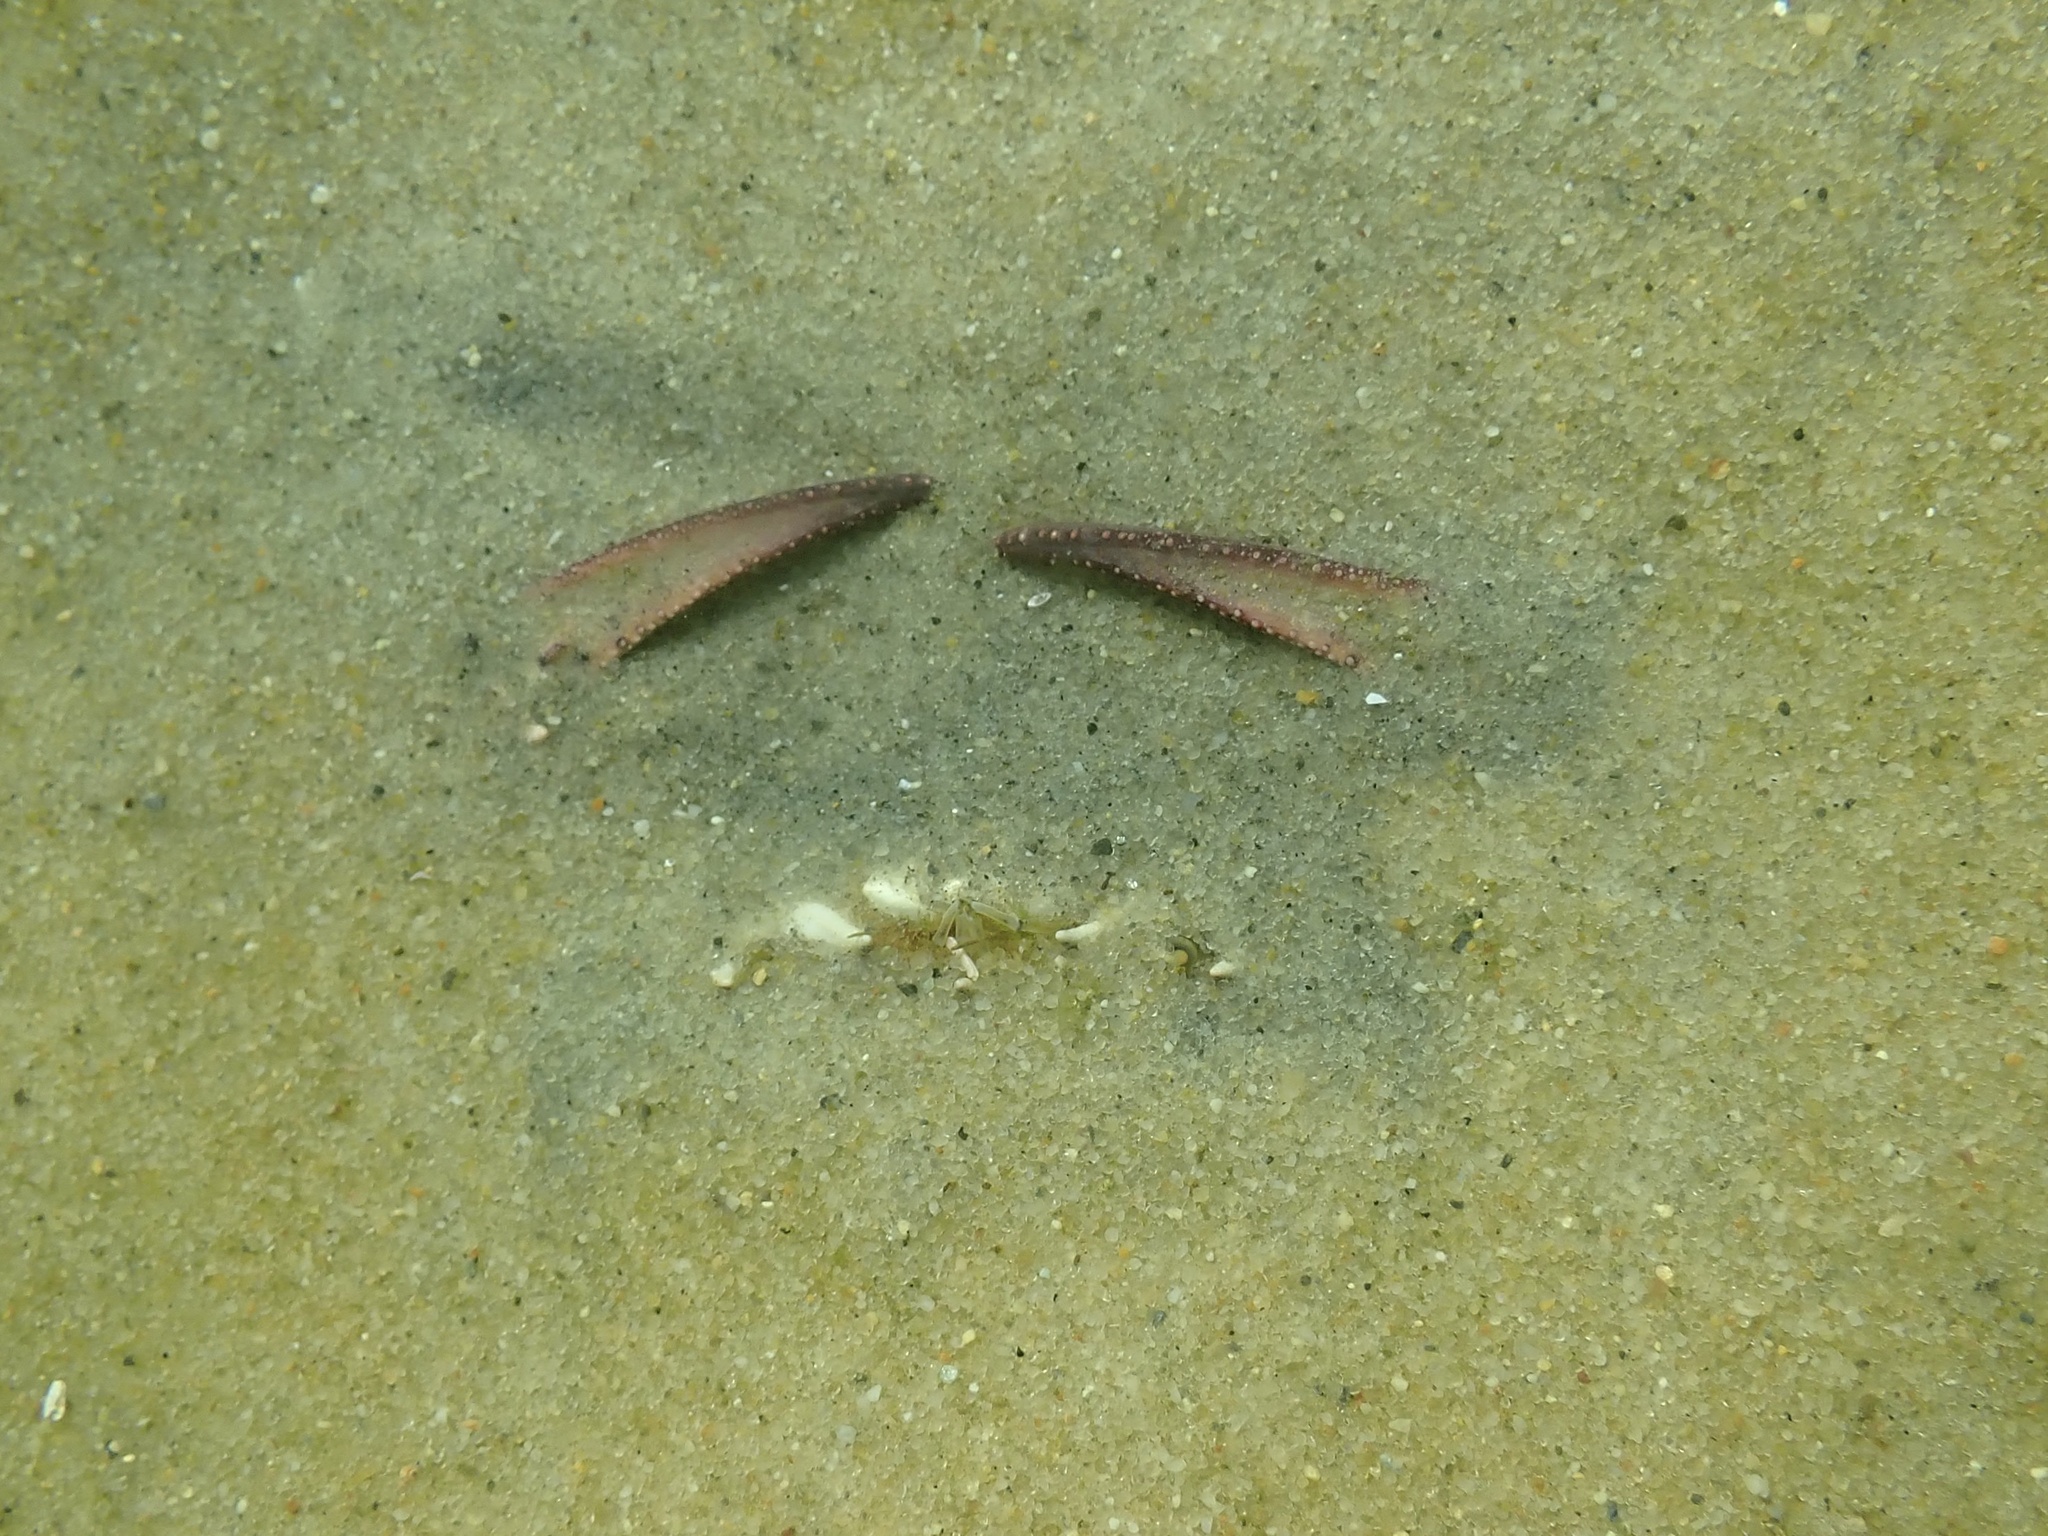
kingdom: Animalia
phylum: Arthropoda
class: Malacostraca
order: Decapoda
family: Ovalipidae
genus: Ovalipes
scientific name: Ovalipes ocellatus
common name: Lady crab
